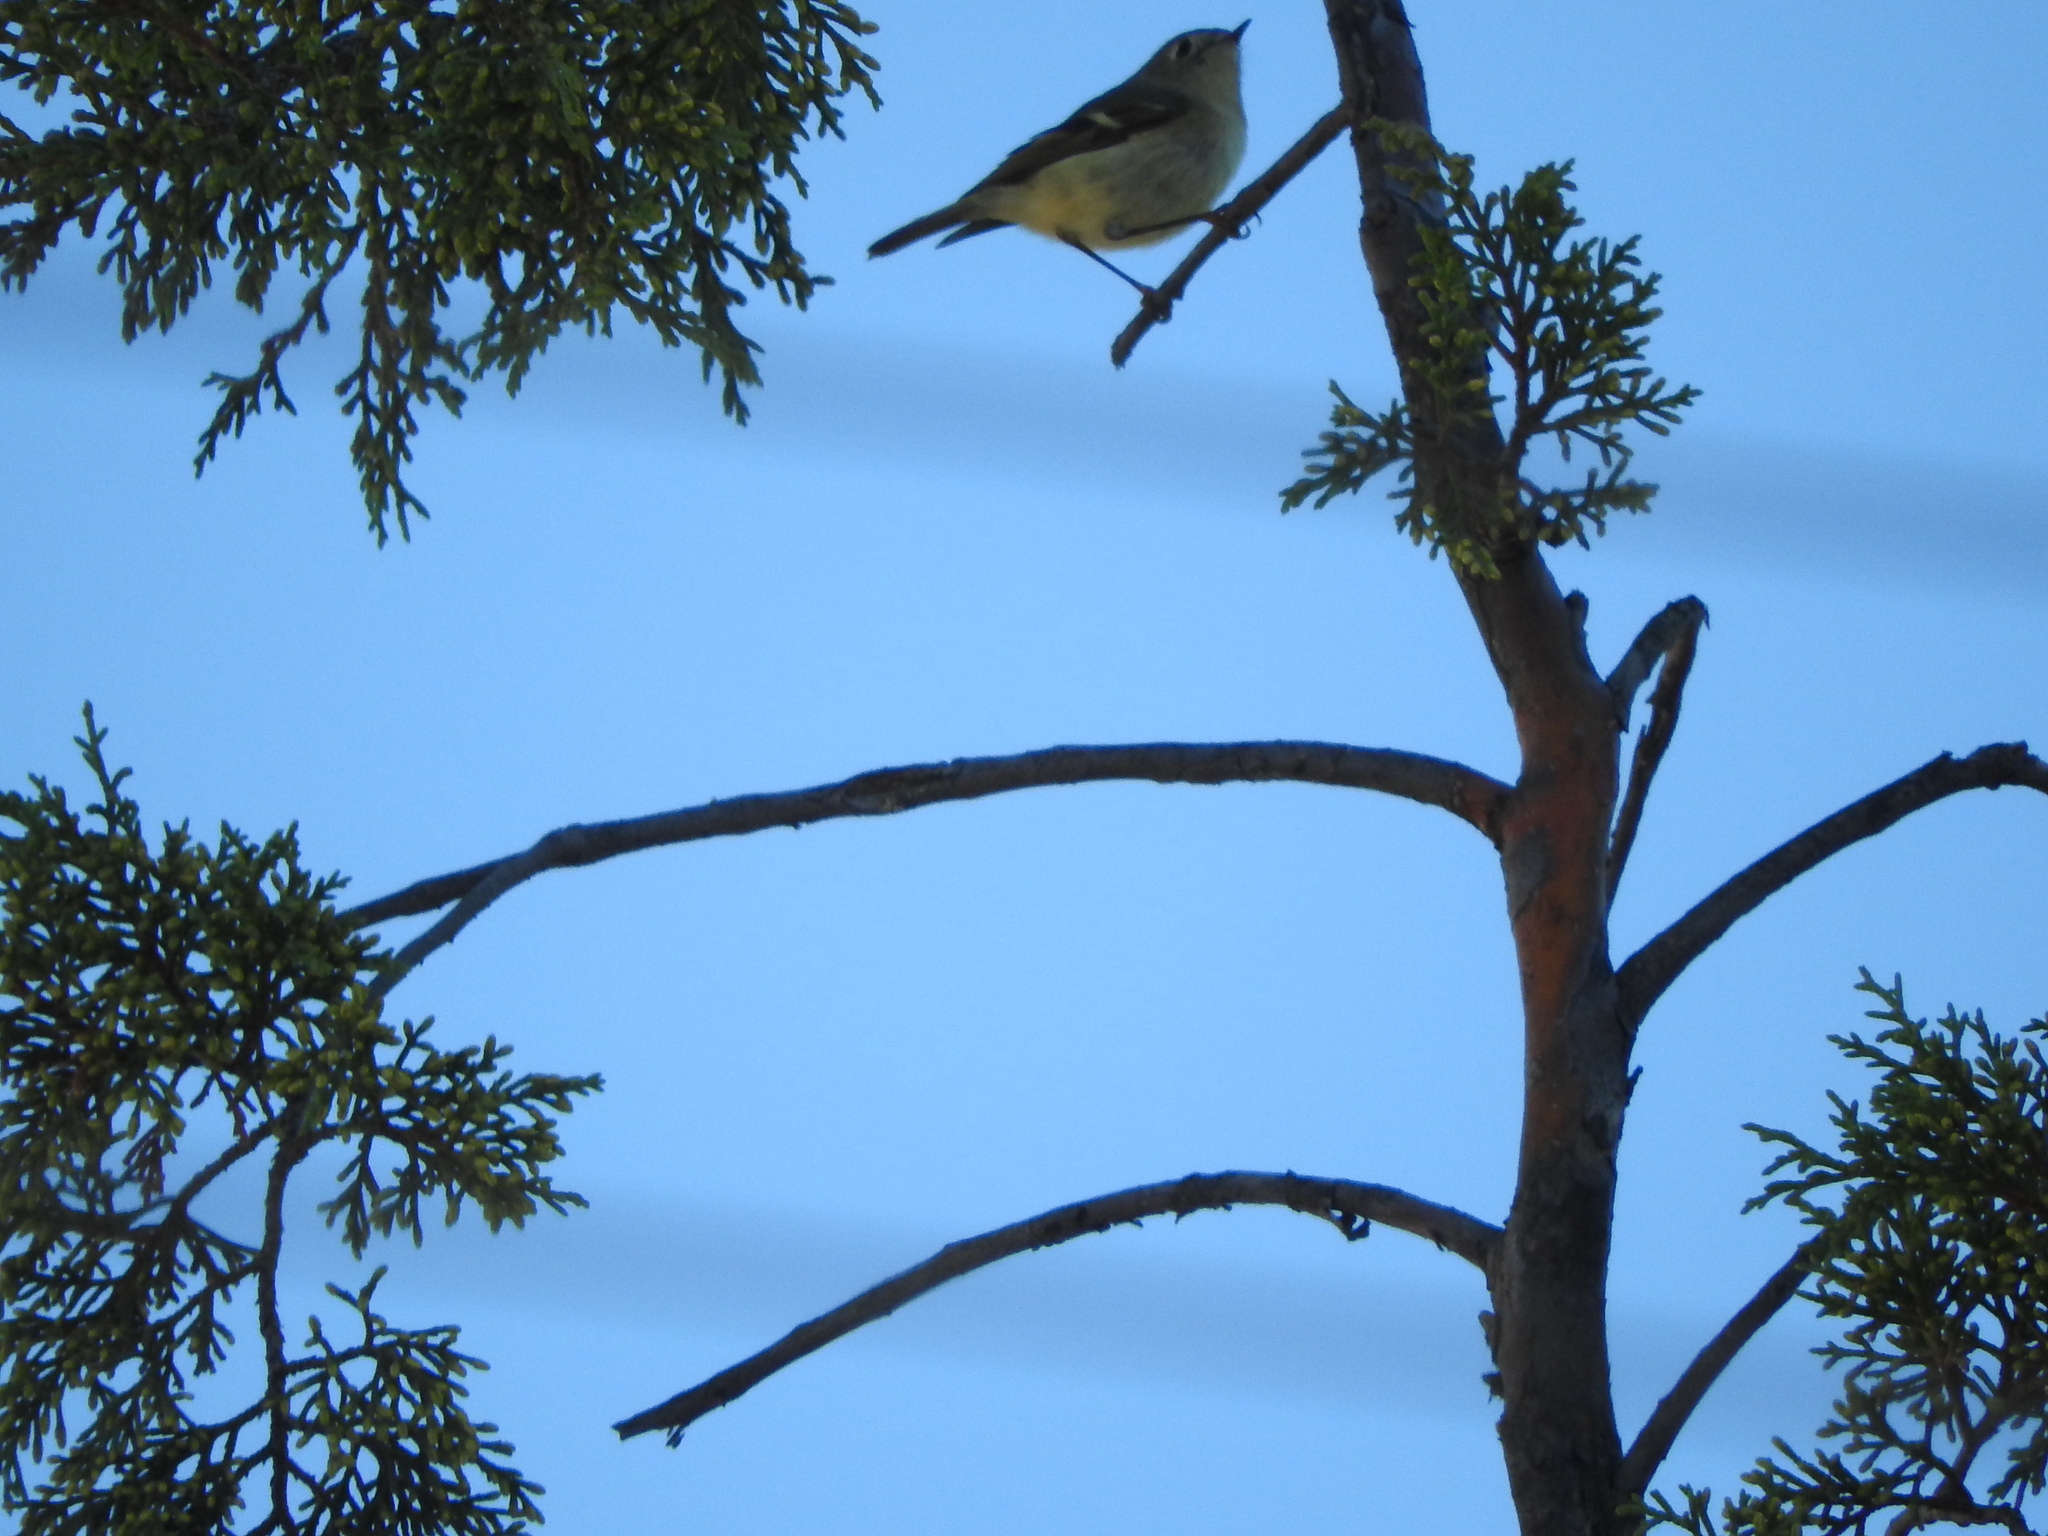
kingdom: Animalia
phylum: Chordata
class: Aves
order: Passeriformes
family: Regulidae
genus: Regulus
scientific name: Regulus calendula
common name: Ruby-crowned kinglet
